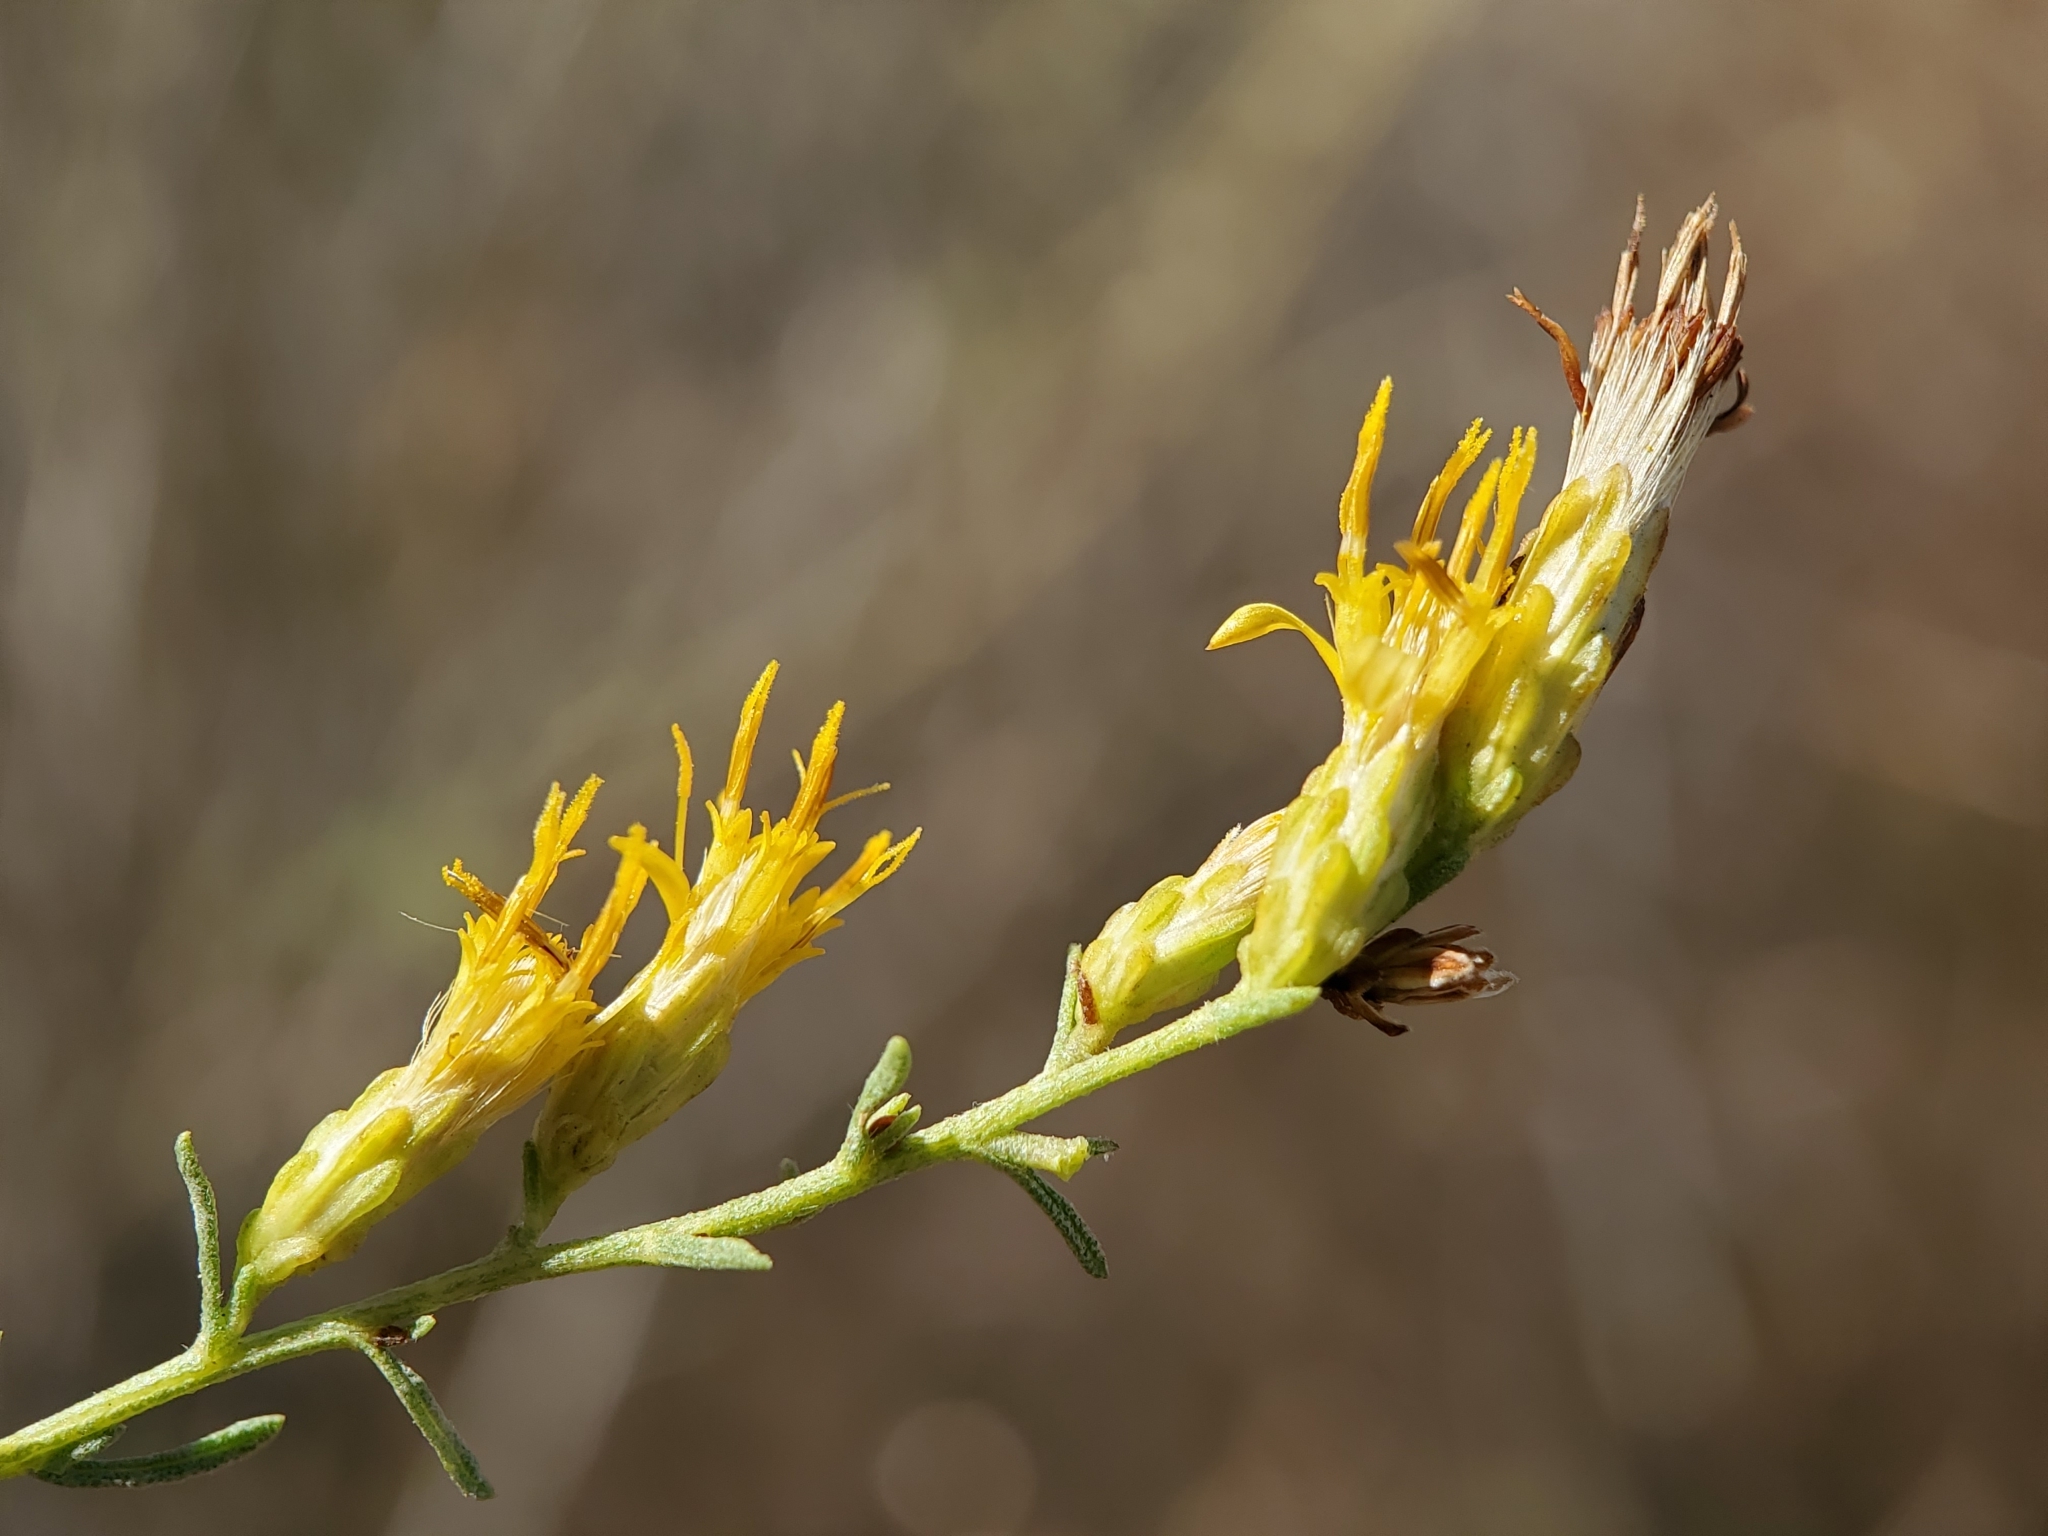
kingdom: Plantae
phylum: Tracheophyta
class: Magnoliopsida
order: Asterales
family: Asteraceae
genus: Ericameria
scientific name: Ericameria palmeri
